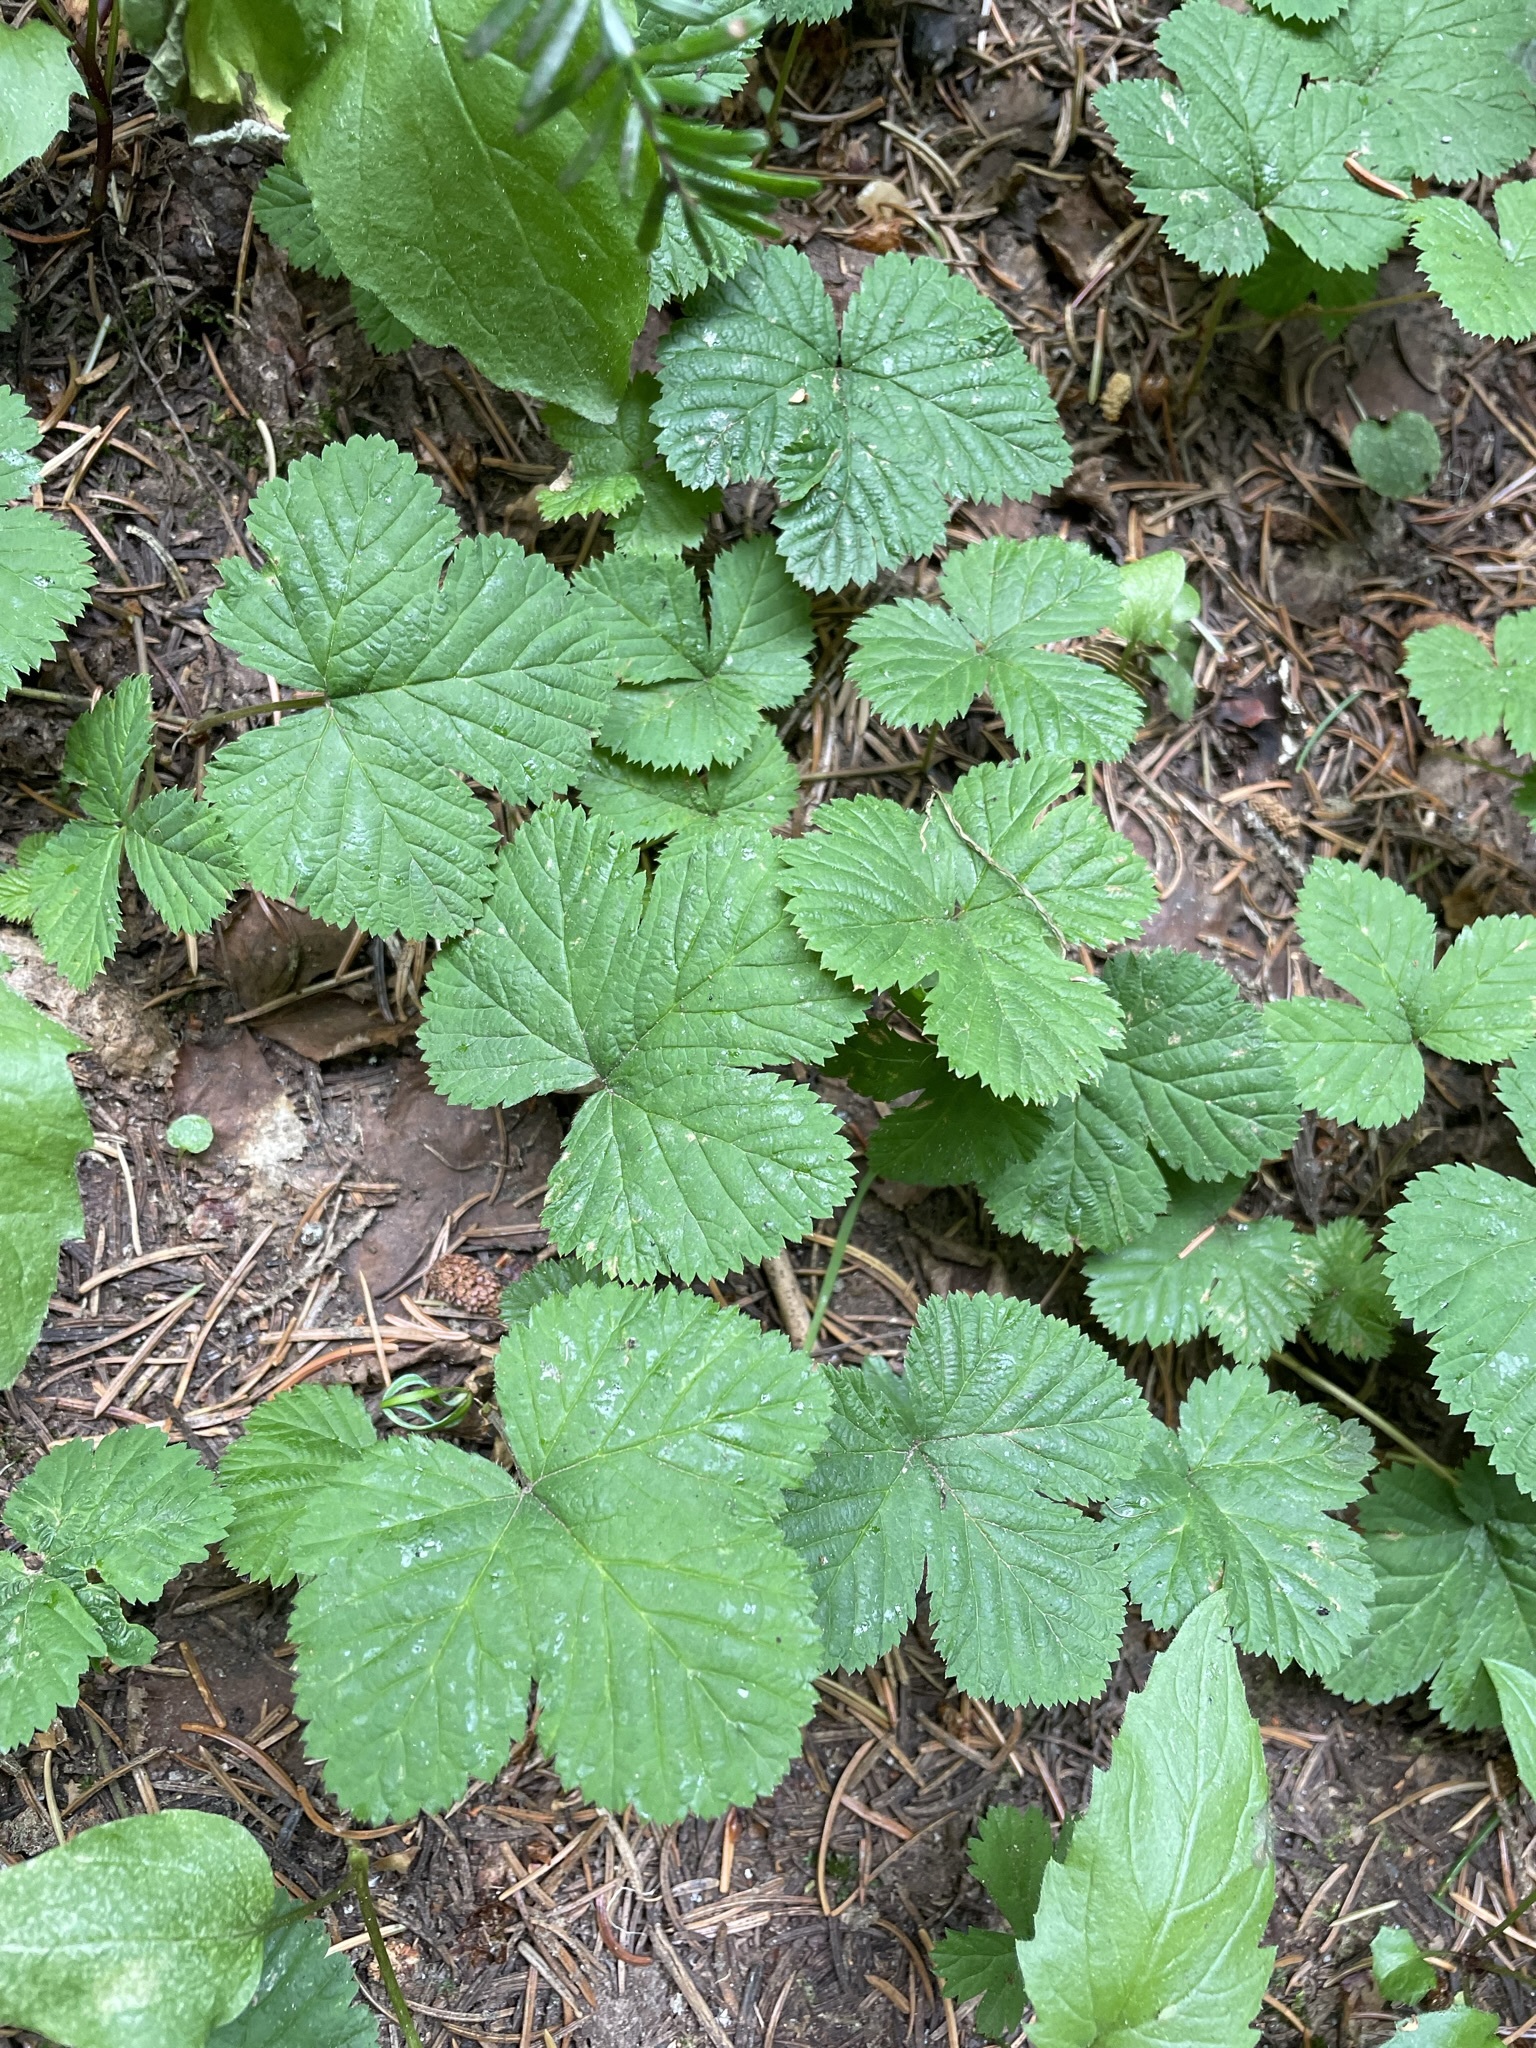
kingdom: Plantae
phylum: Tracheophyta
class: Magnoliopsida
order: Rosales
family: Rosaceae
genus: Rubus
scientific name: Rubus lasiococcus
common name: Dwarf bramble
